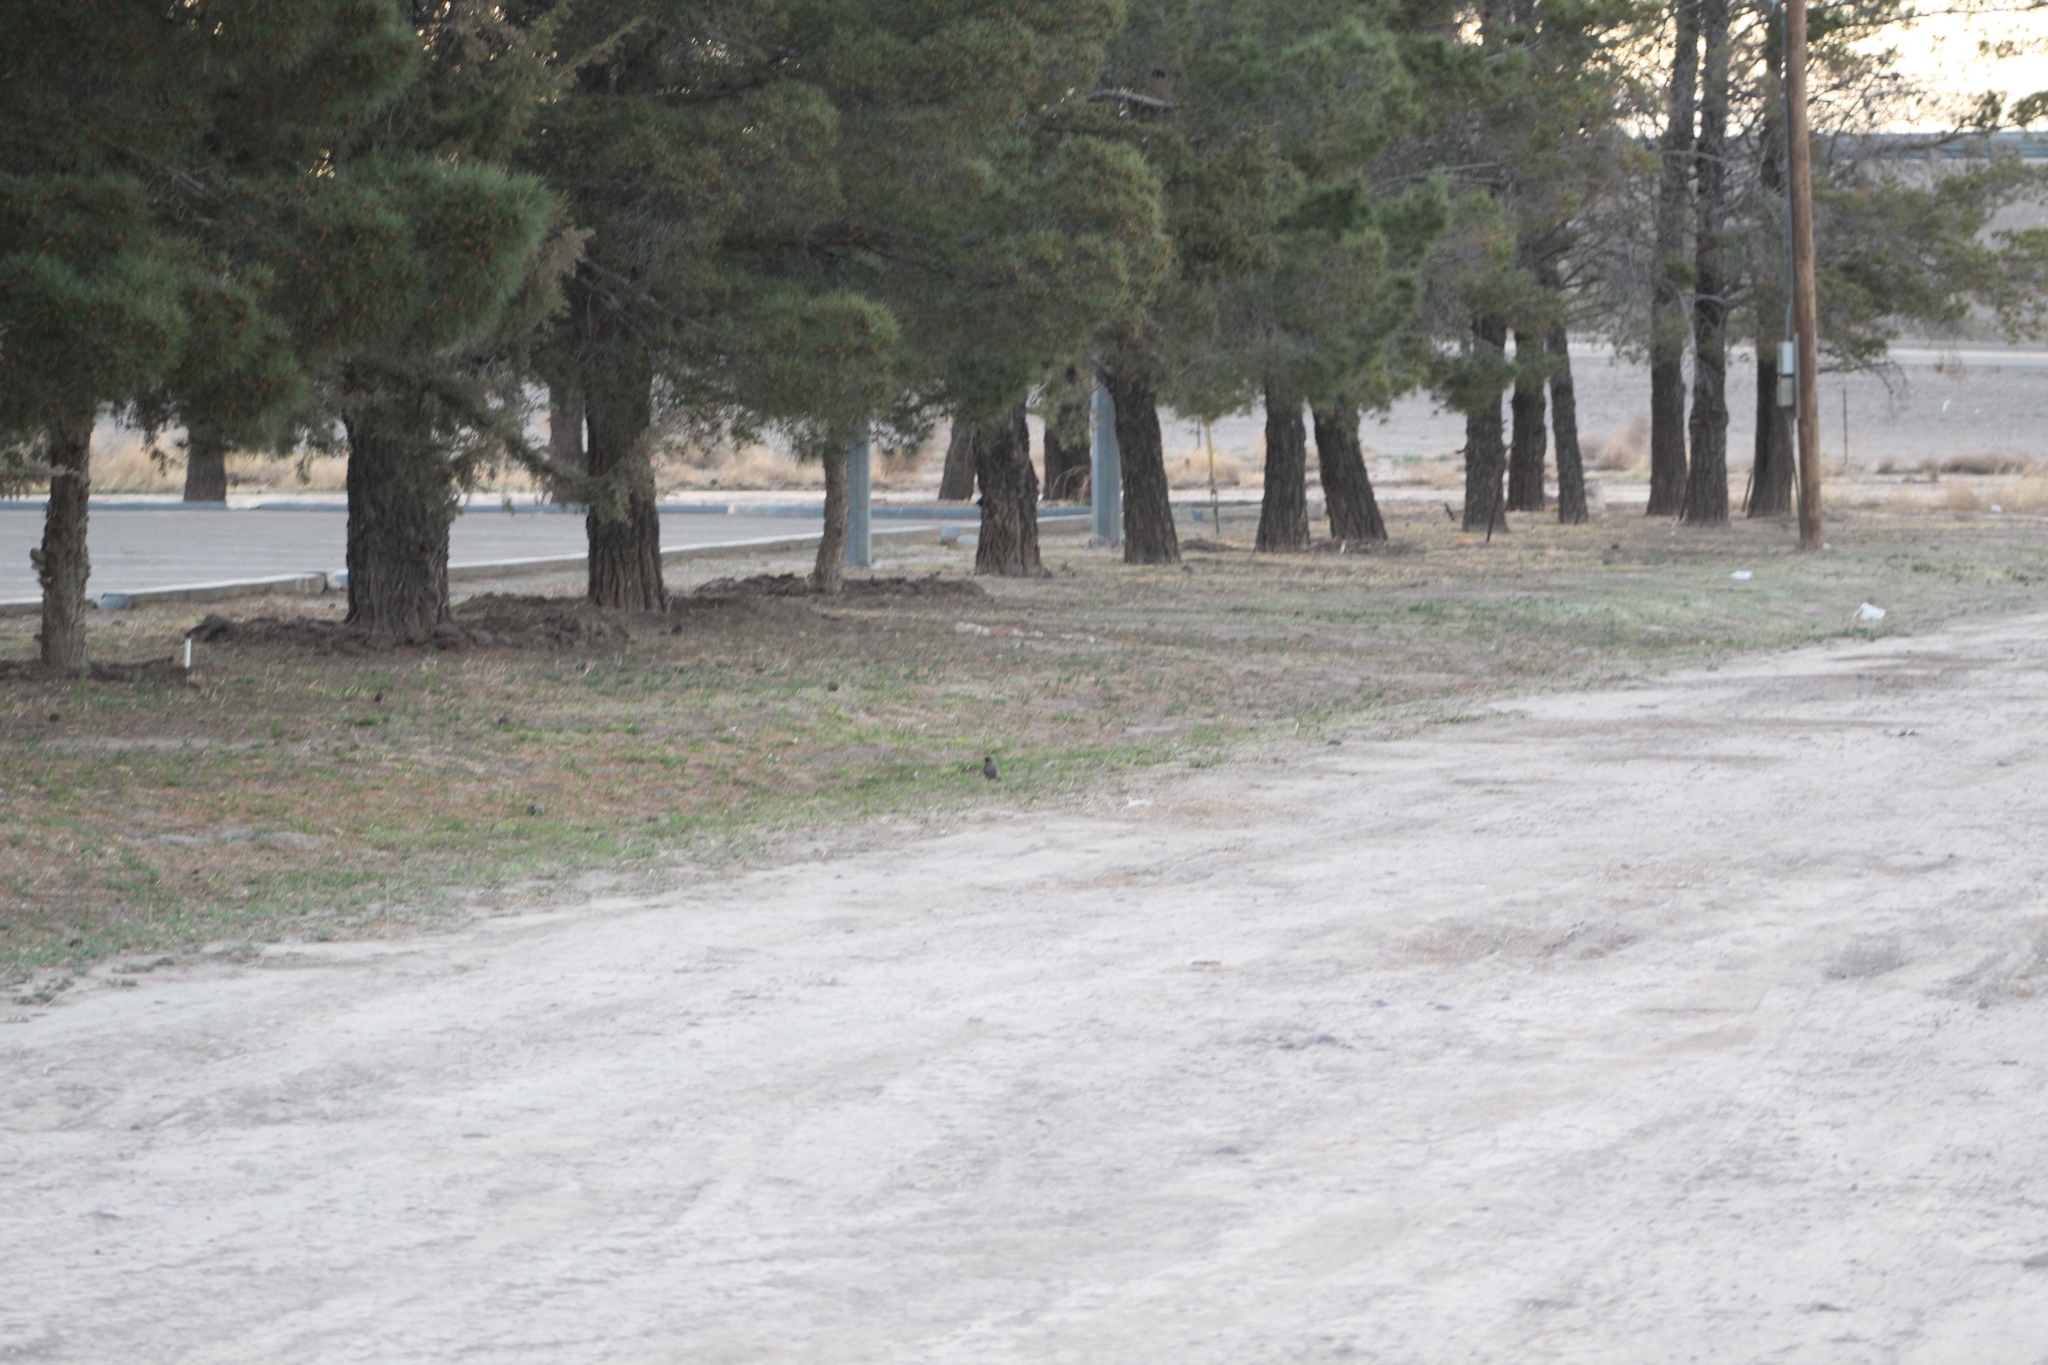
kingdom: Animalia
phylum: Chordata
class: Aves
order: Passeriformes
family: Turdidae
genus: Turdus
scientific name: Turdus migratorius
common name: American robin
